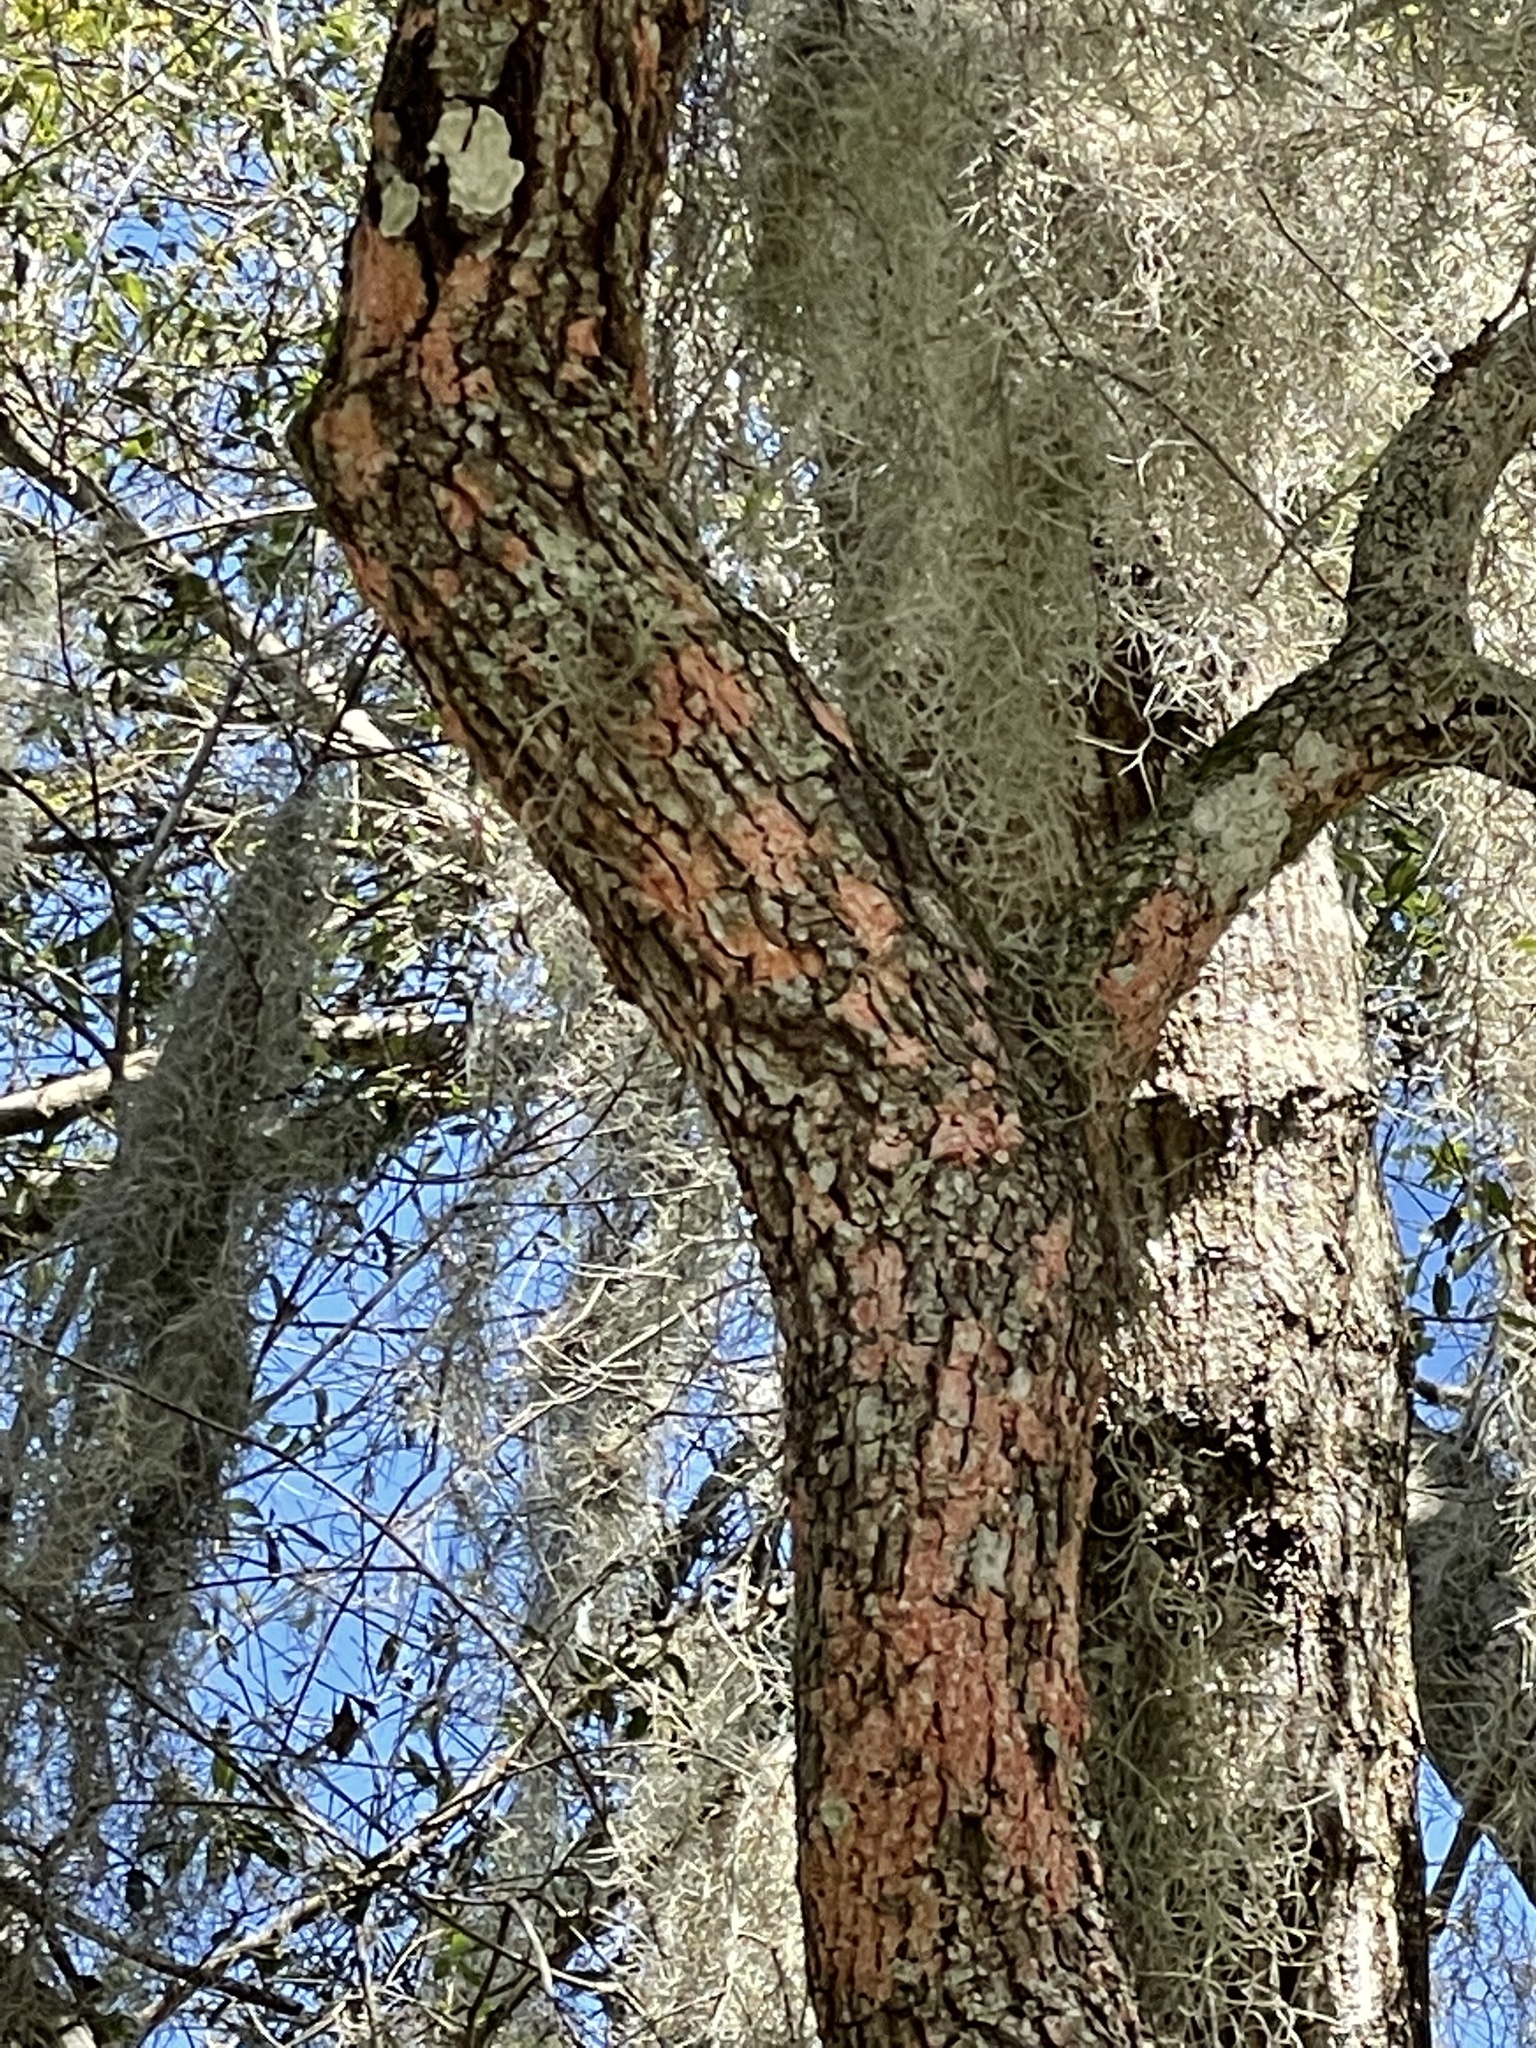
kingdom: Fungi
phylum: Ascomycota
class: Arthoniomycetes
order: Arthoniales
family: Arthoniaceae
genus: Herpothallon
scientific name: Herpothallon rubrocinctum
